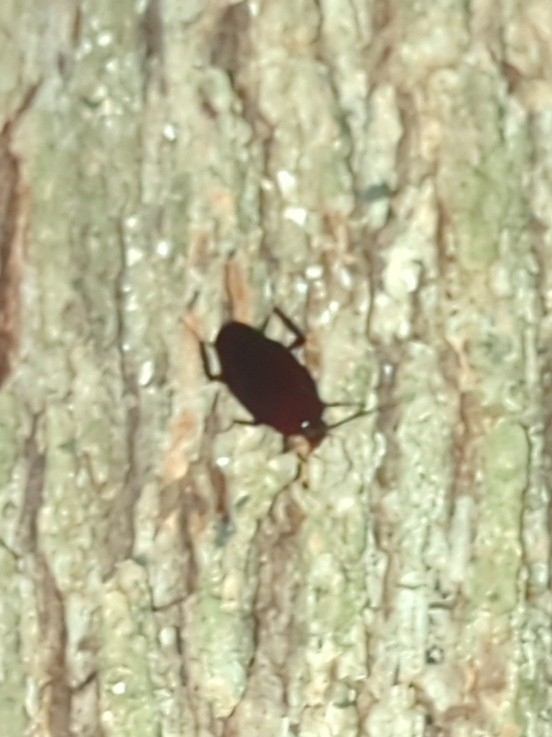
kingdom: Animalia
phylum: Arthropoda
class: Insecta
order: Blattodea
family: Blattidae
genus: Periplaneta
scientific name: Periplaneta fuliginosa
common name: Smokeybrown cockroad
